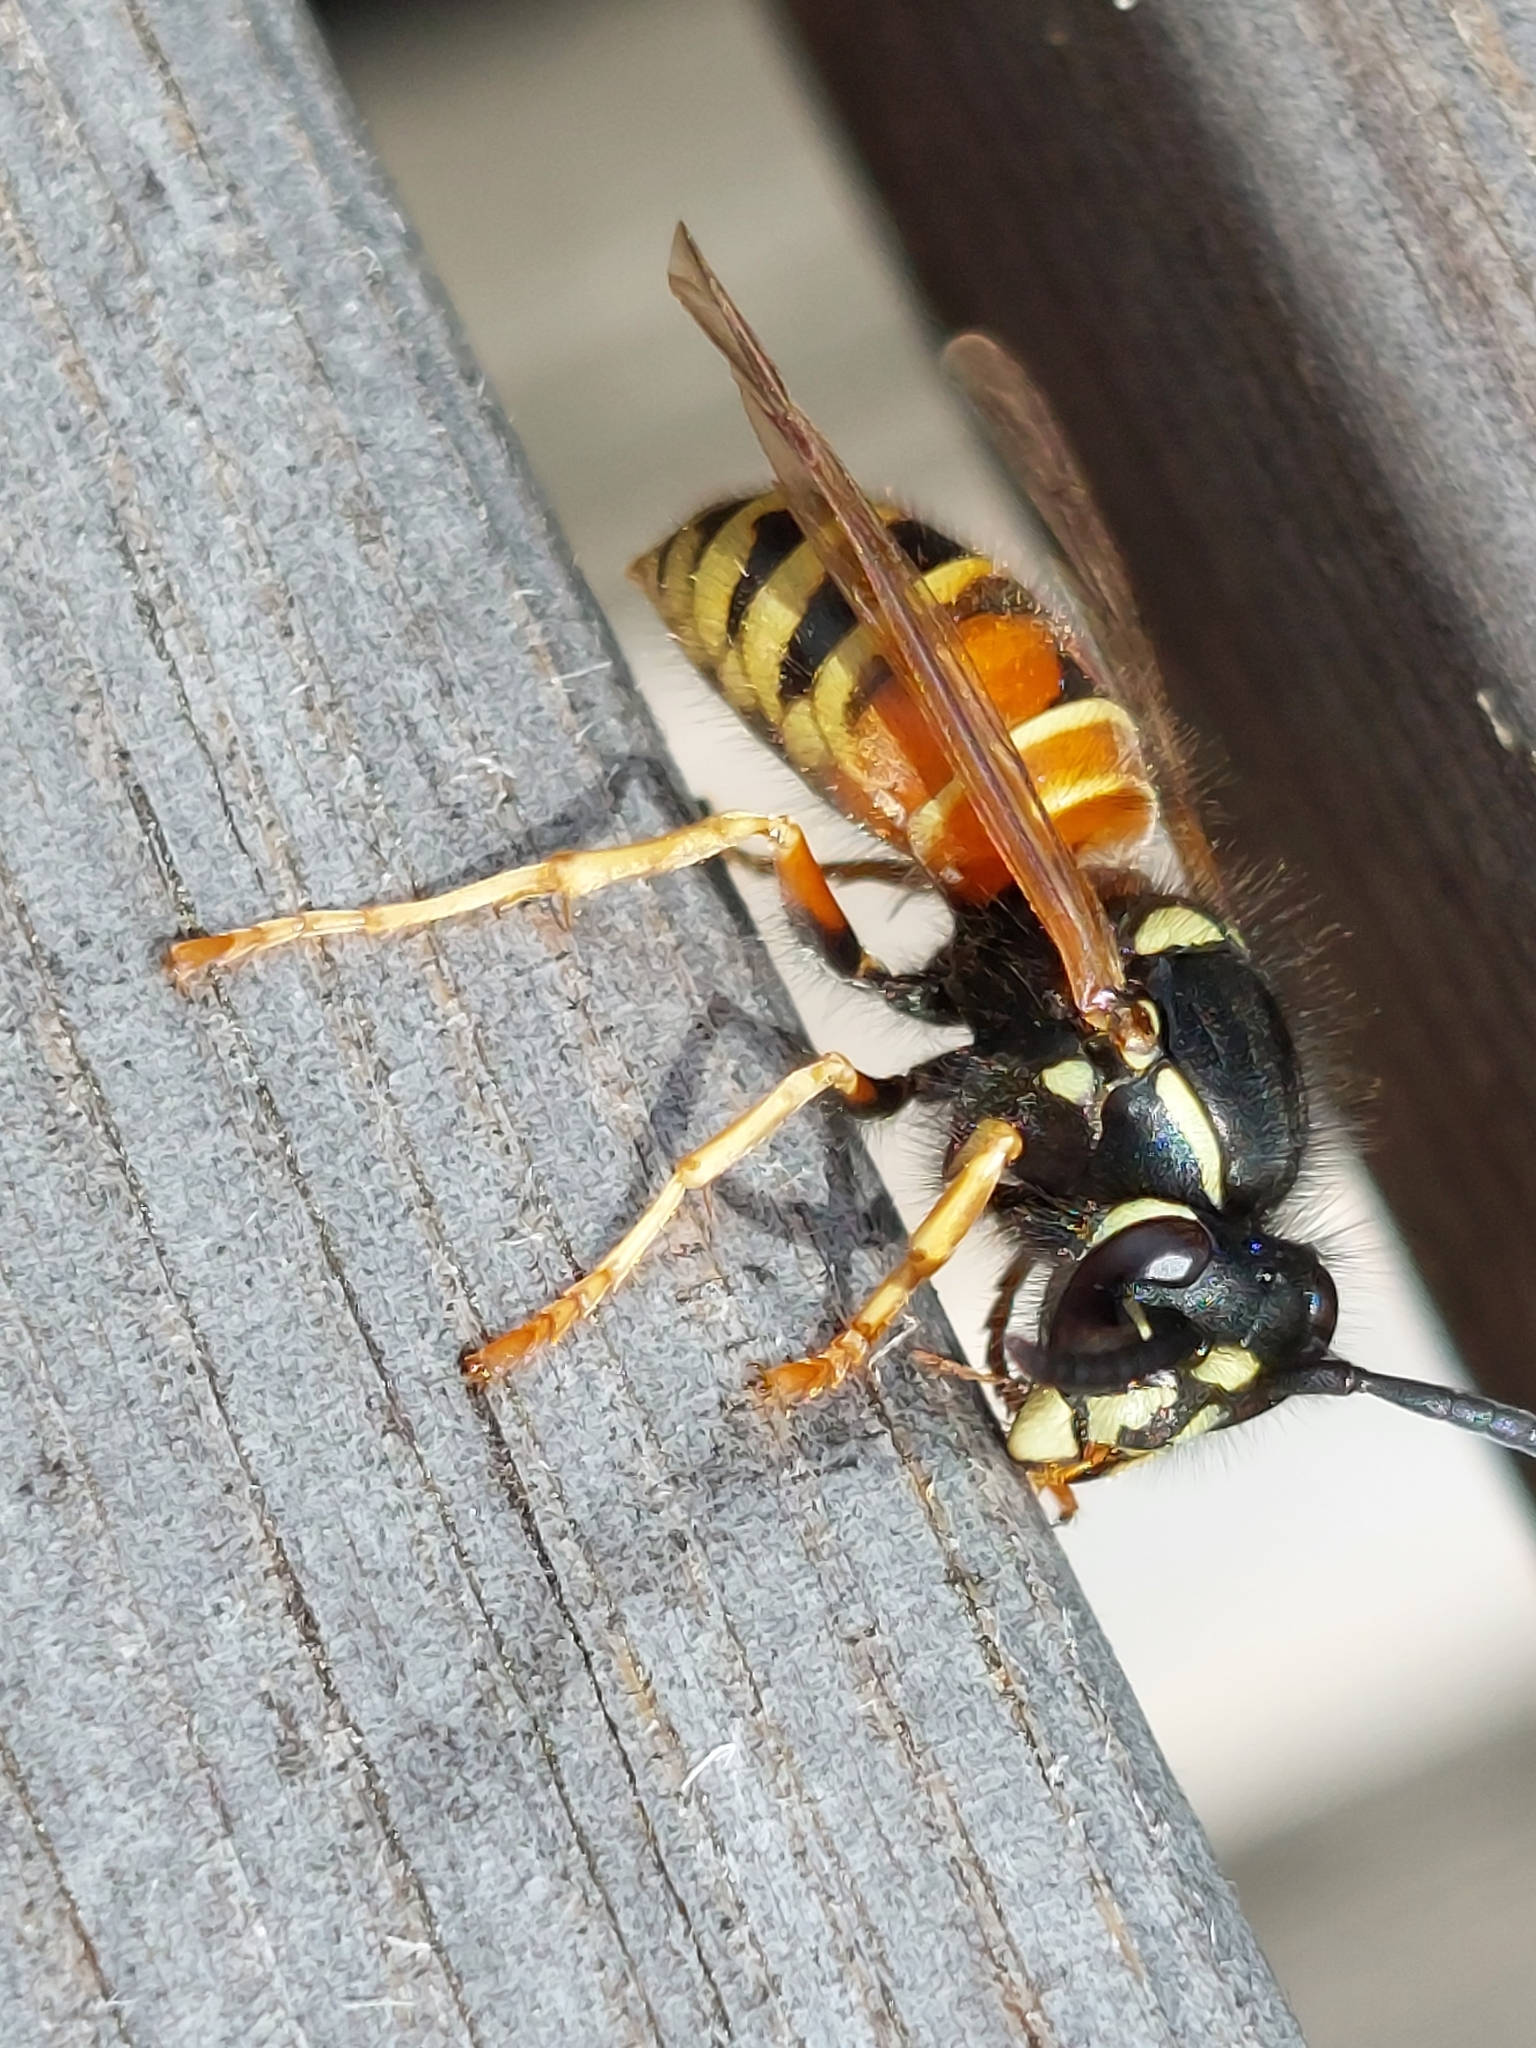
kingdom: Animalia
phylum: Arthropoda
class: Insecta
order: Hymenoptera
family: Vespidae
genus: Vespula
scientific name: Vespula rufa
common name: Red wasp
